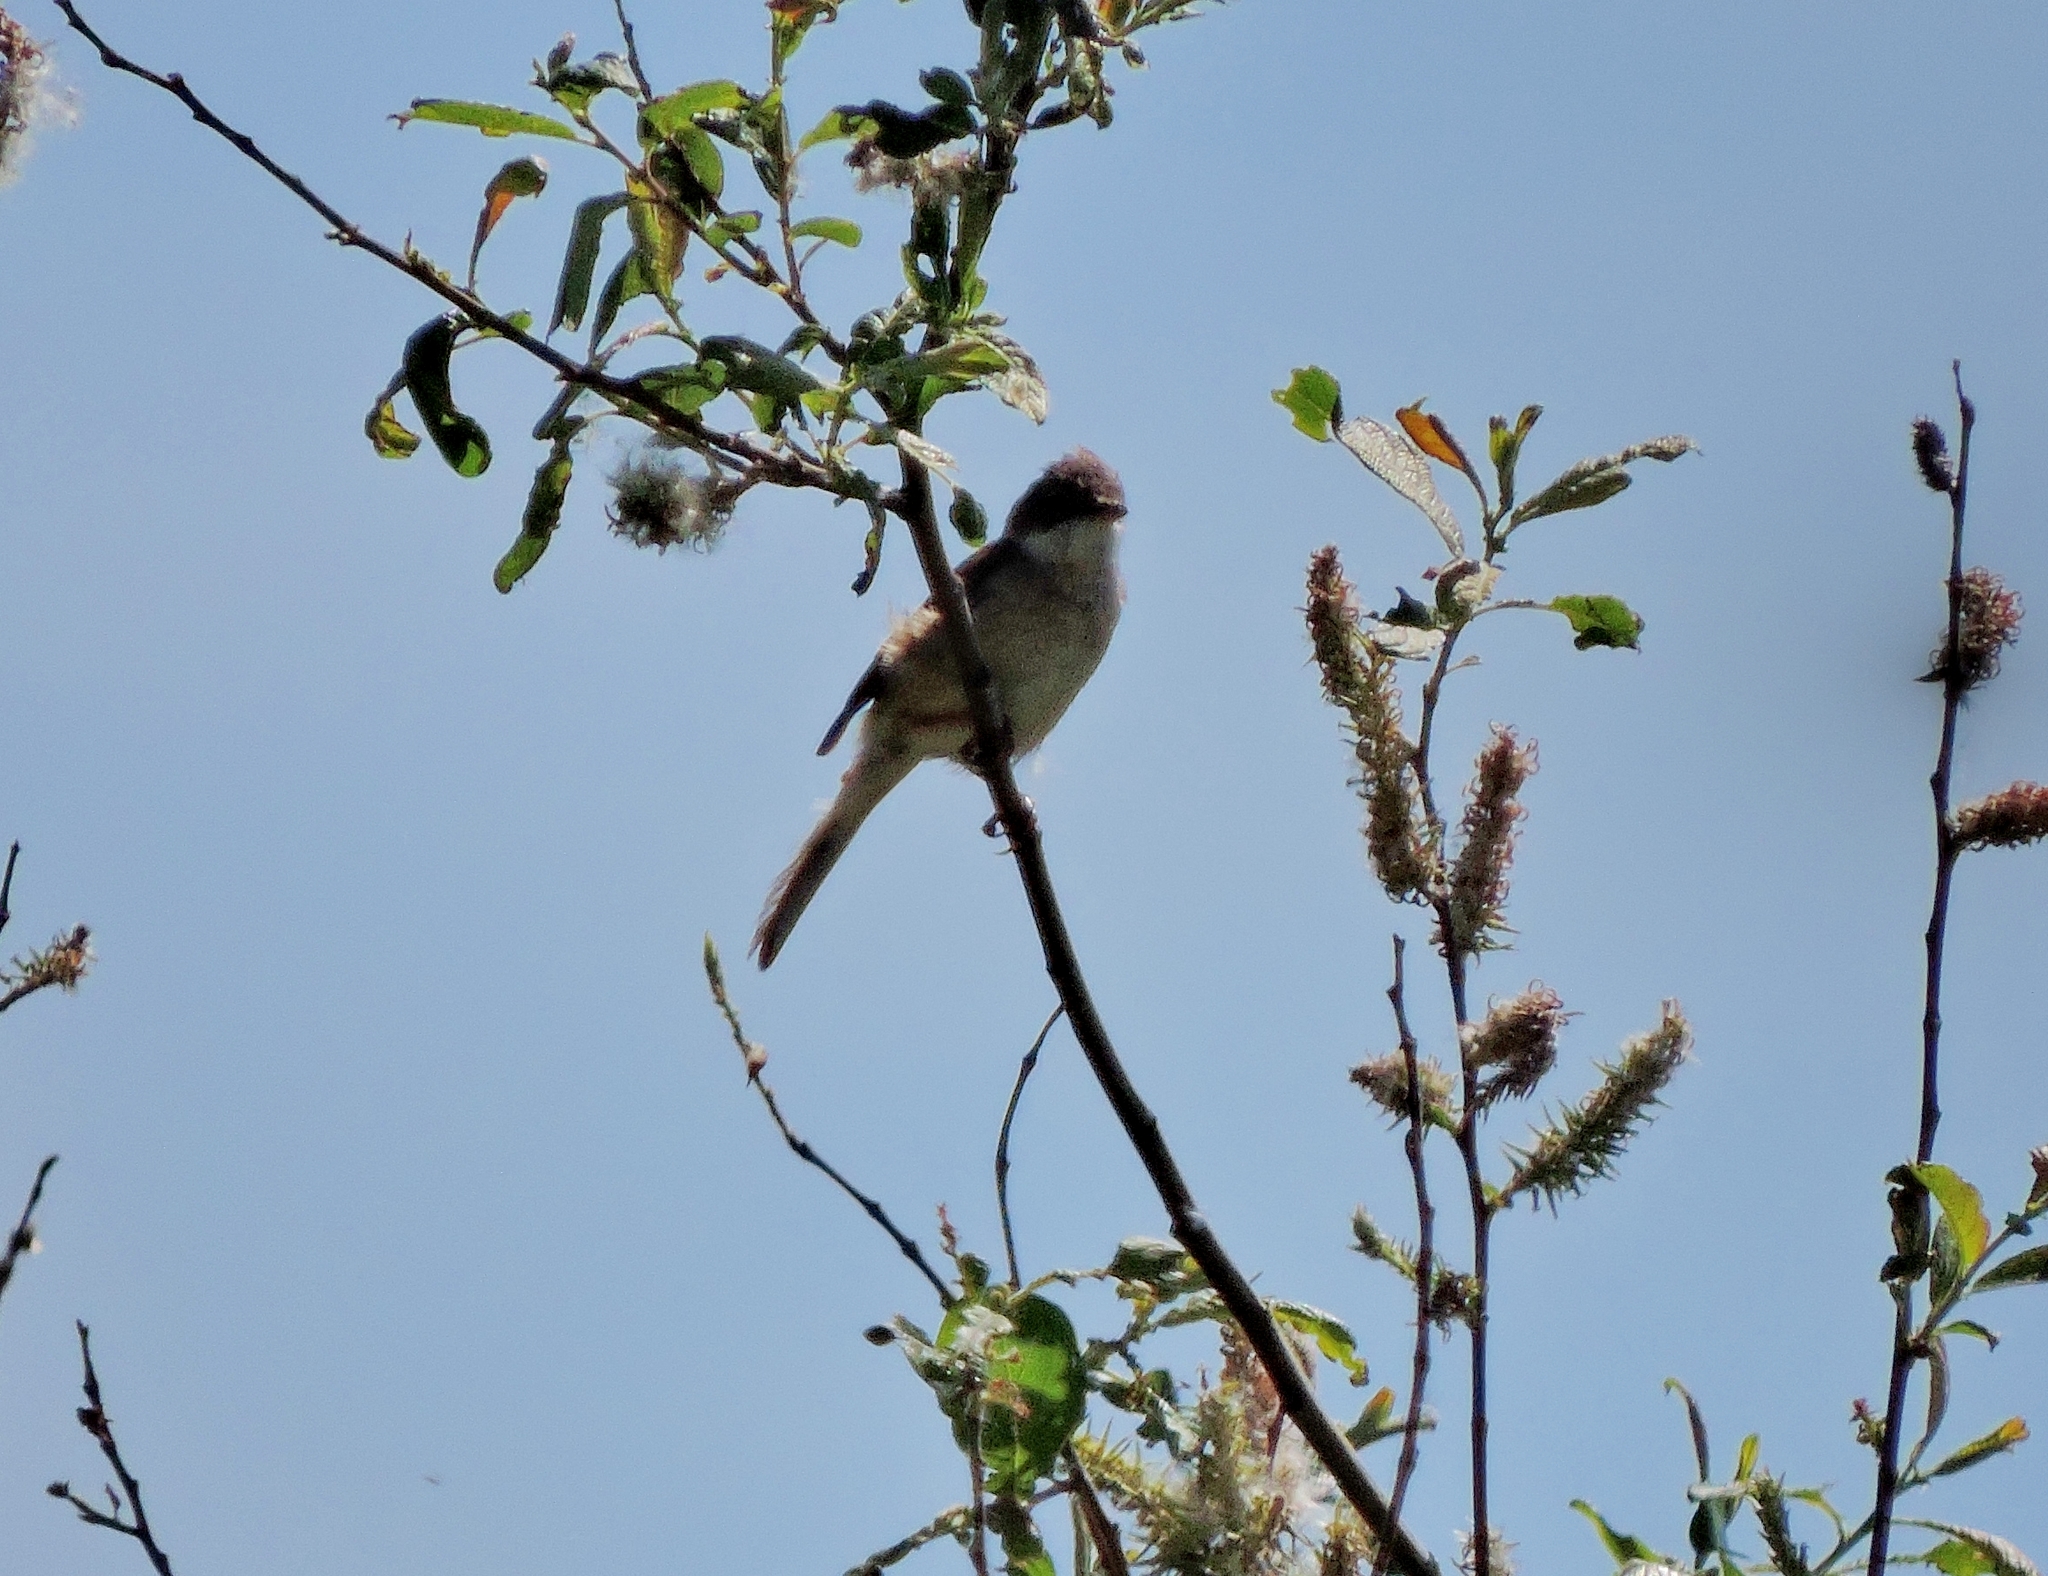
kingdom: Animalia
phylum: Chordata
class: Aves
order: Passeriformes
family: Sylviidae
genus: Sylvia
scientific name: Sylvia communis
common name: Common whitethroat
